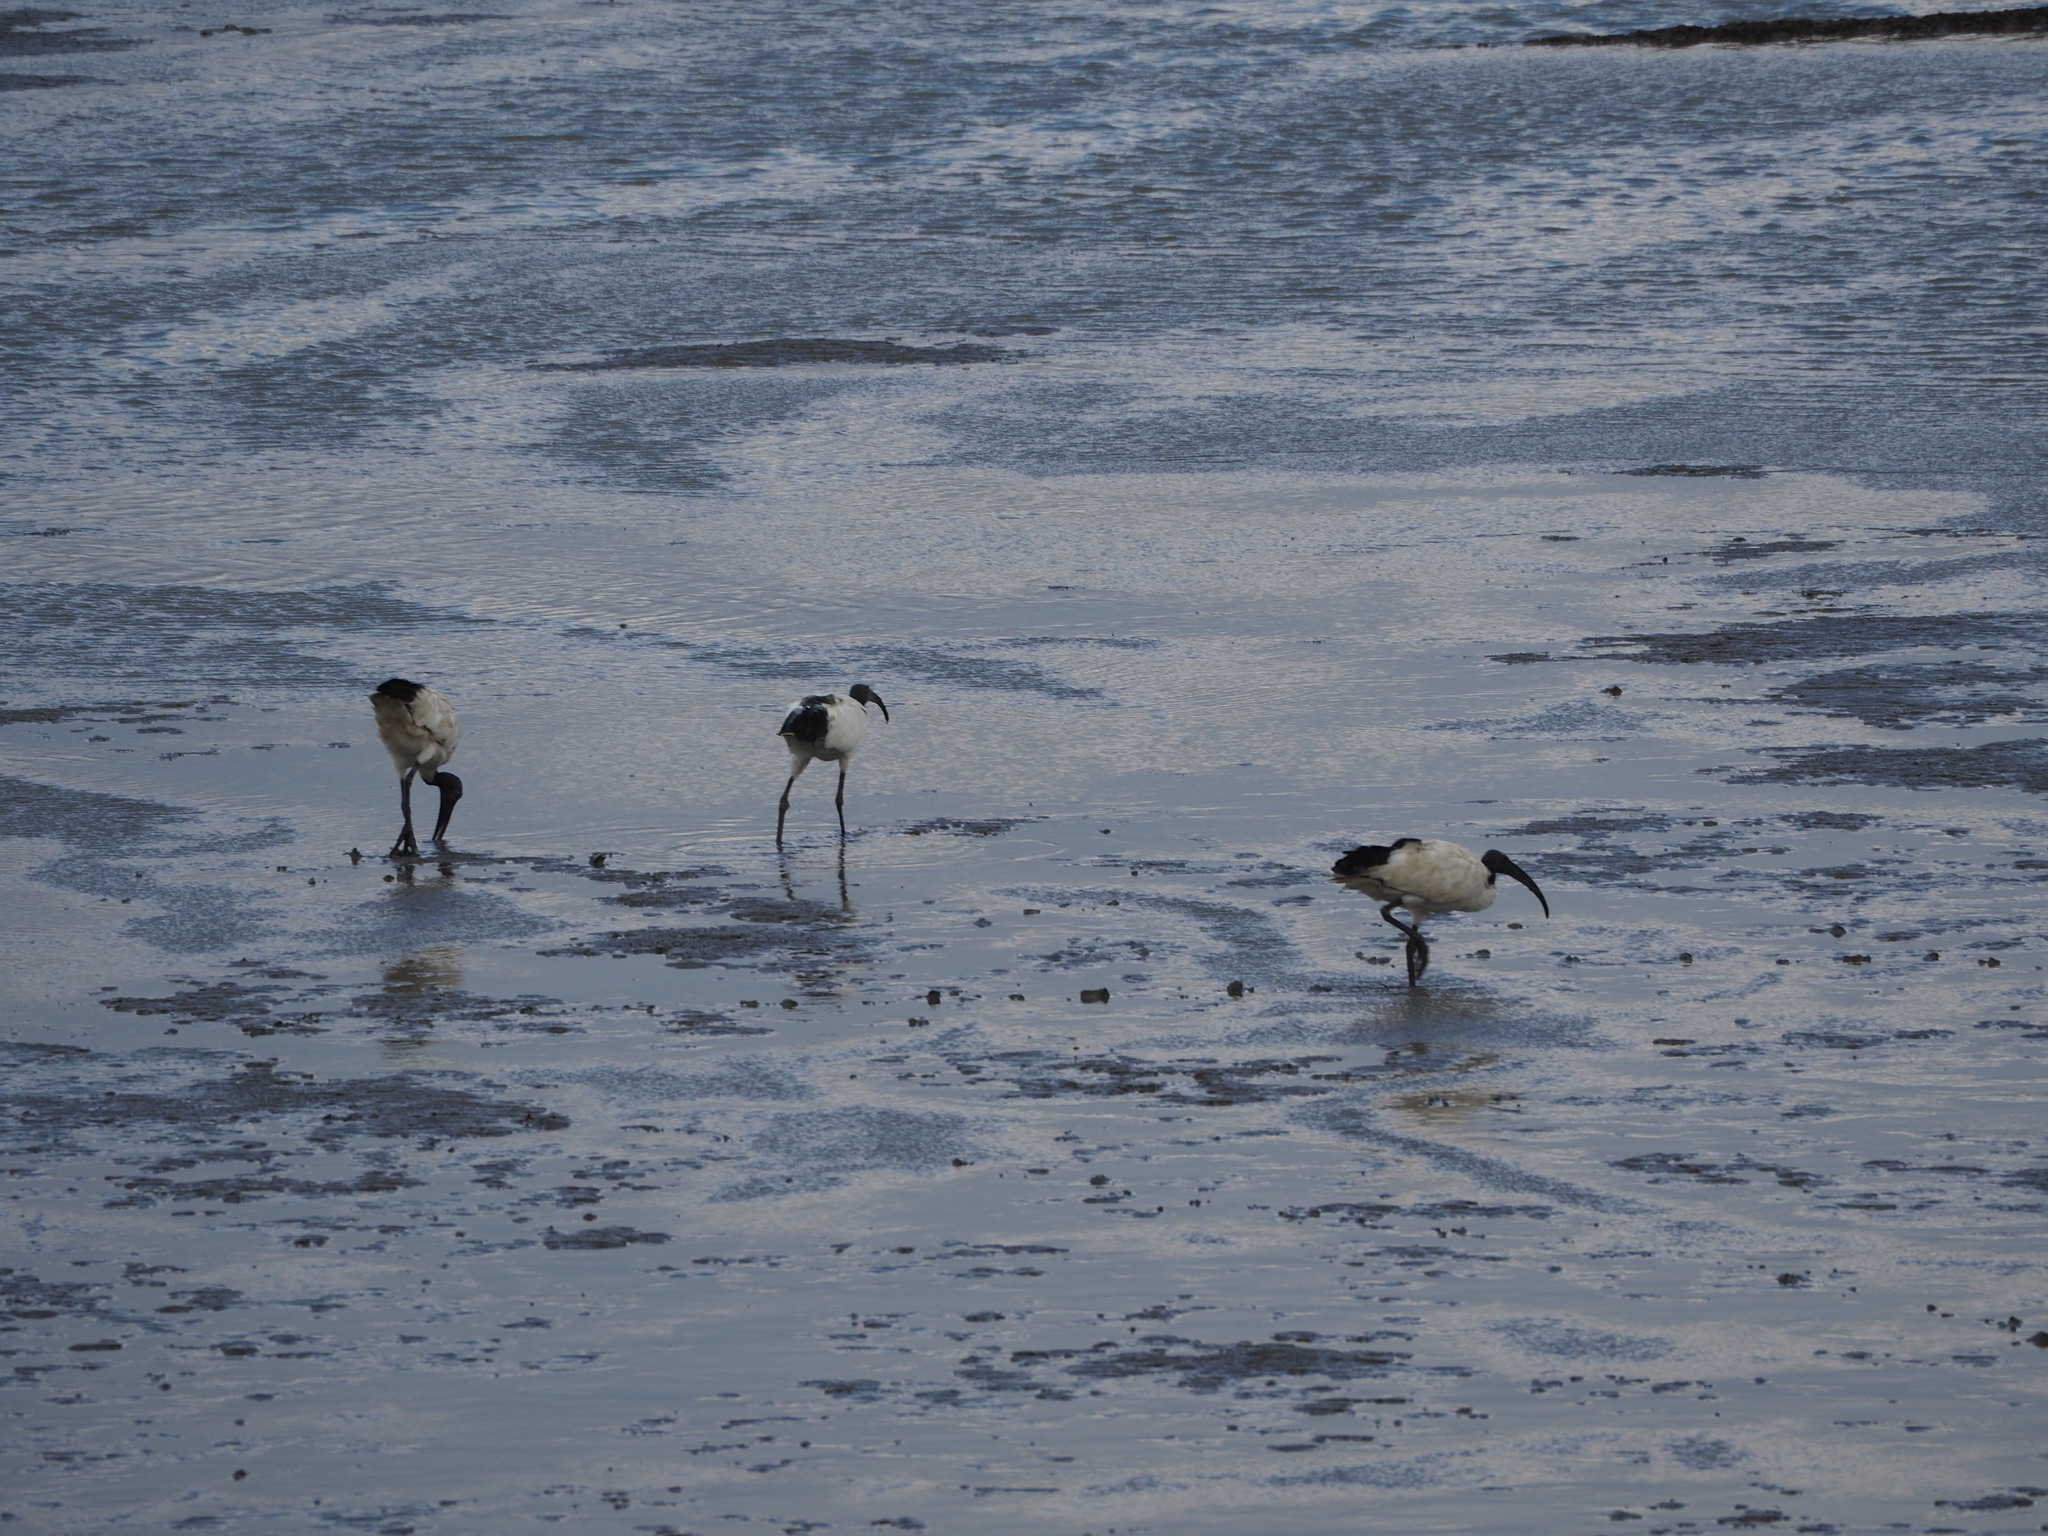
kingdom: Animalia
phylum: Chordata
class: Aves
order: Pelecaniformes
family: Threskiornithidae
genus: Threskiornis
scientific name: Threskiornis aethiopicus
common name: Sacred ibis
